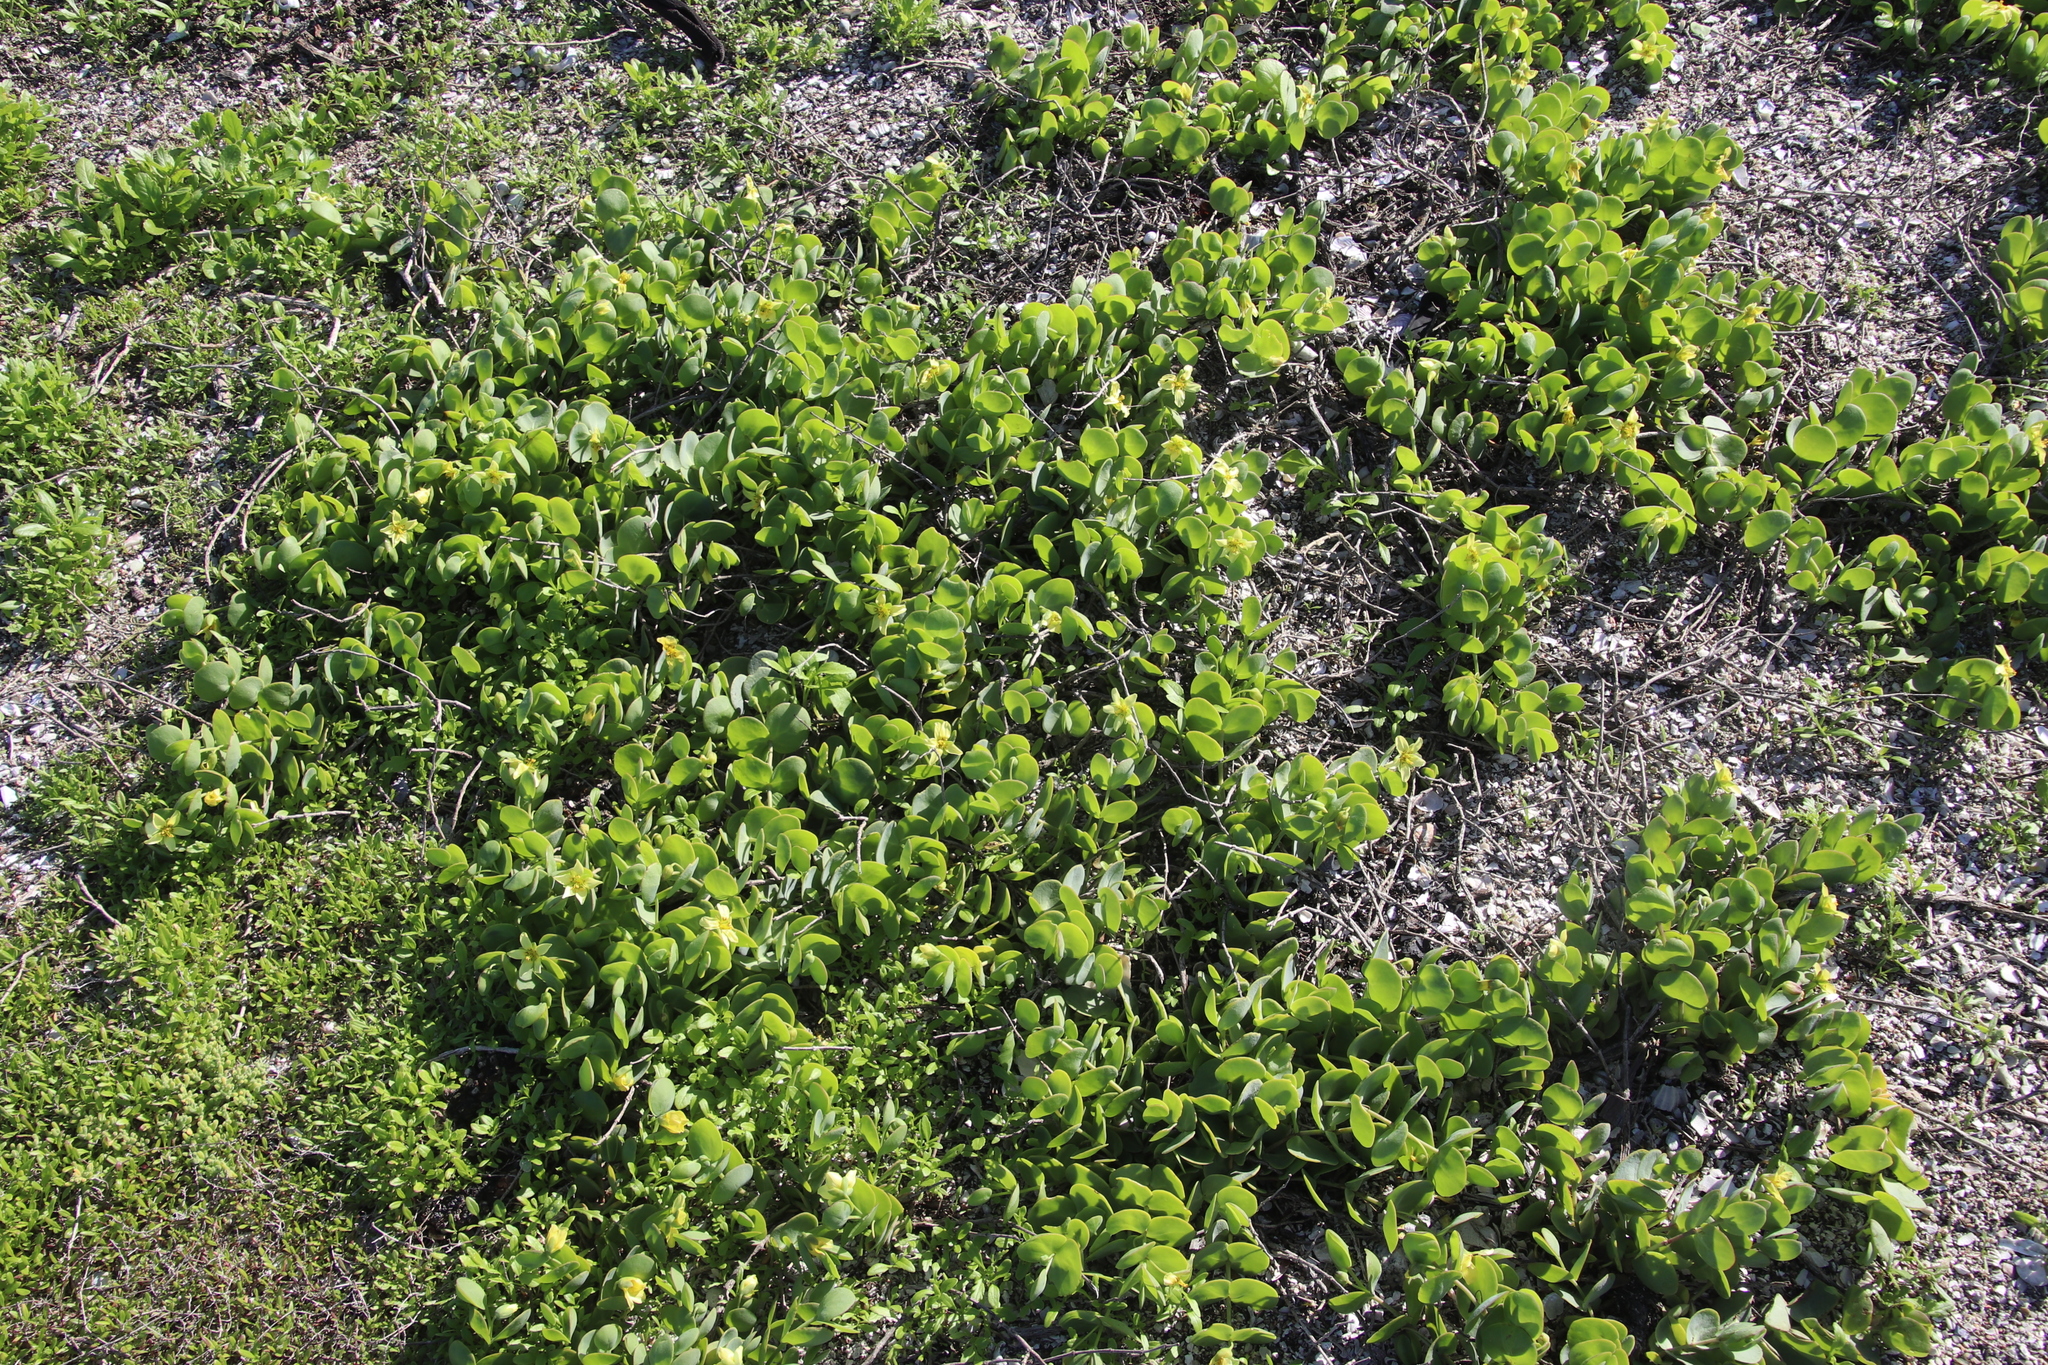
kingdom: Plantae
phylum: Tracheophyta
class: Magnoliopsida
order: Zygophyllales
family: Zygophyllaceae
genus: Roepera
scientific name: Roepera cordifolia
